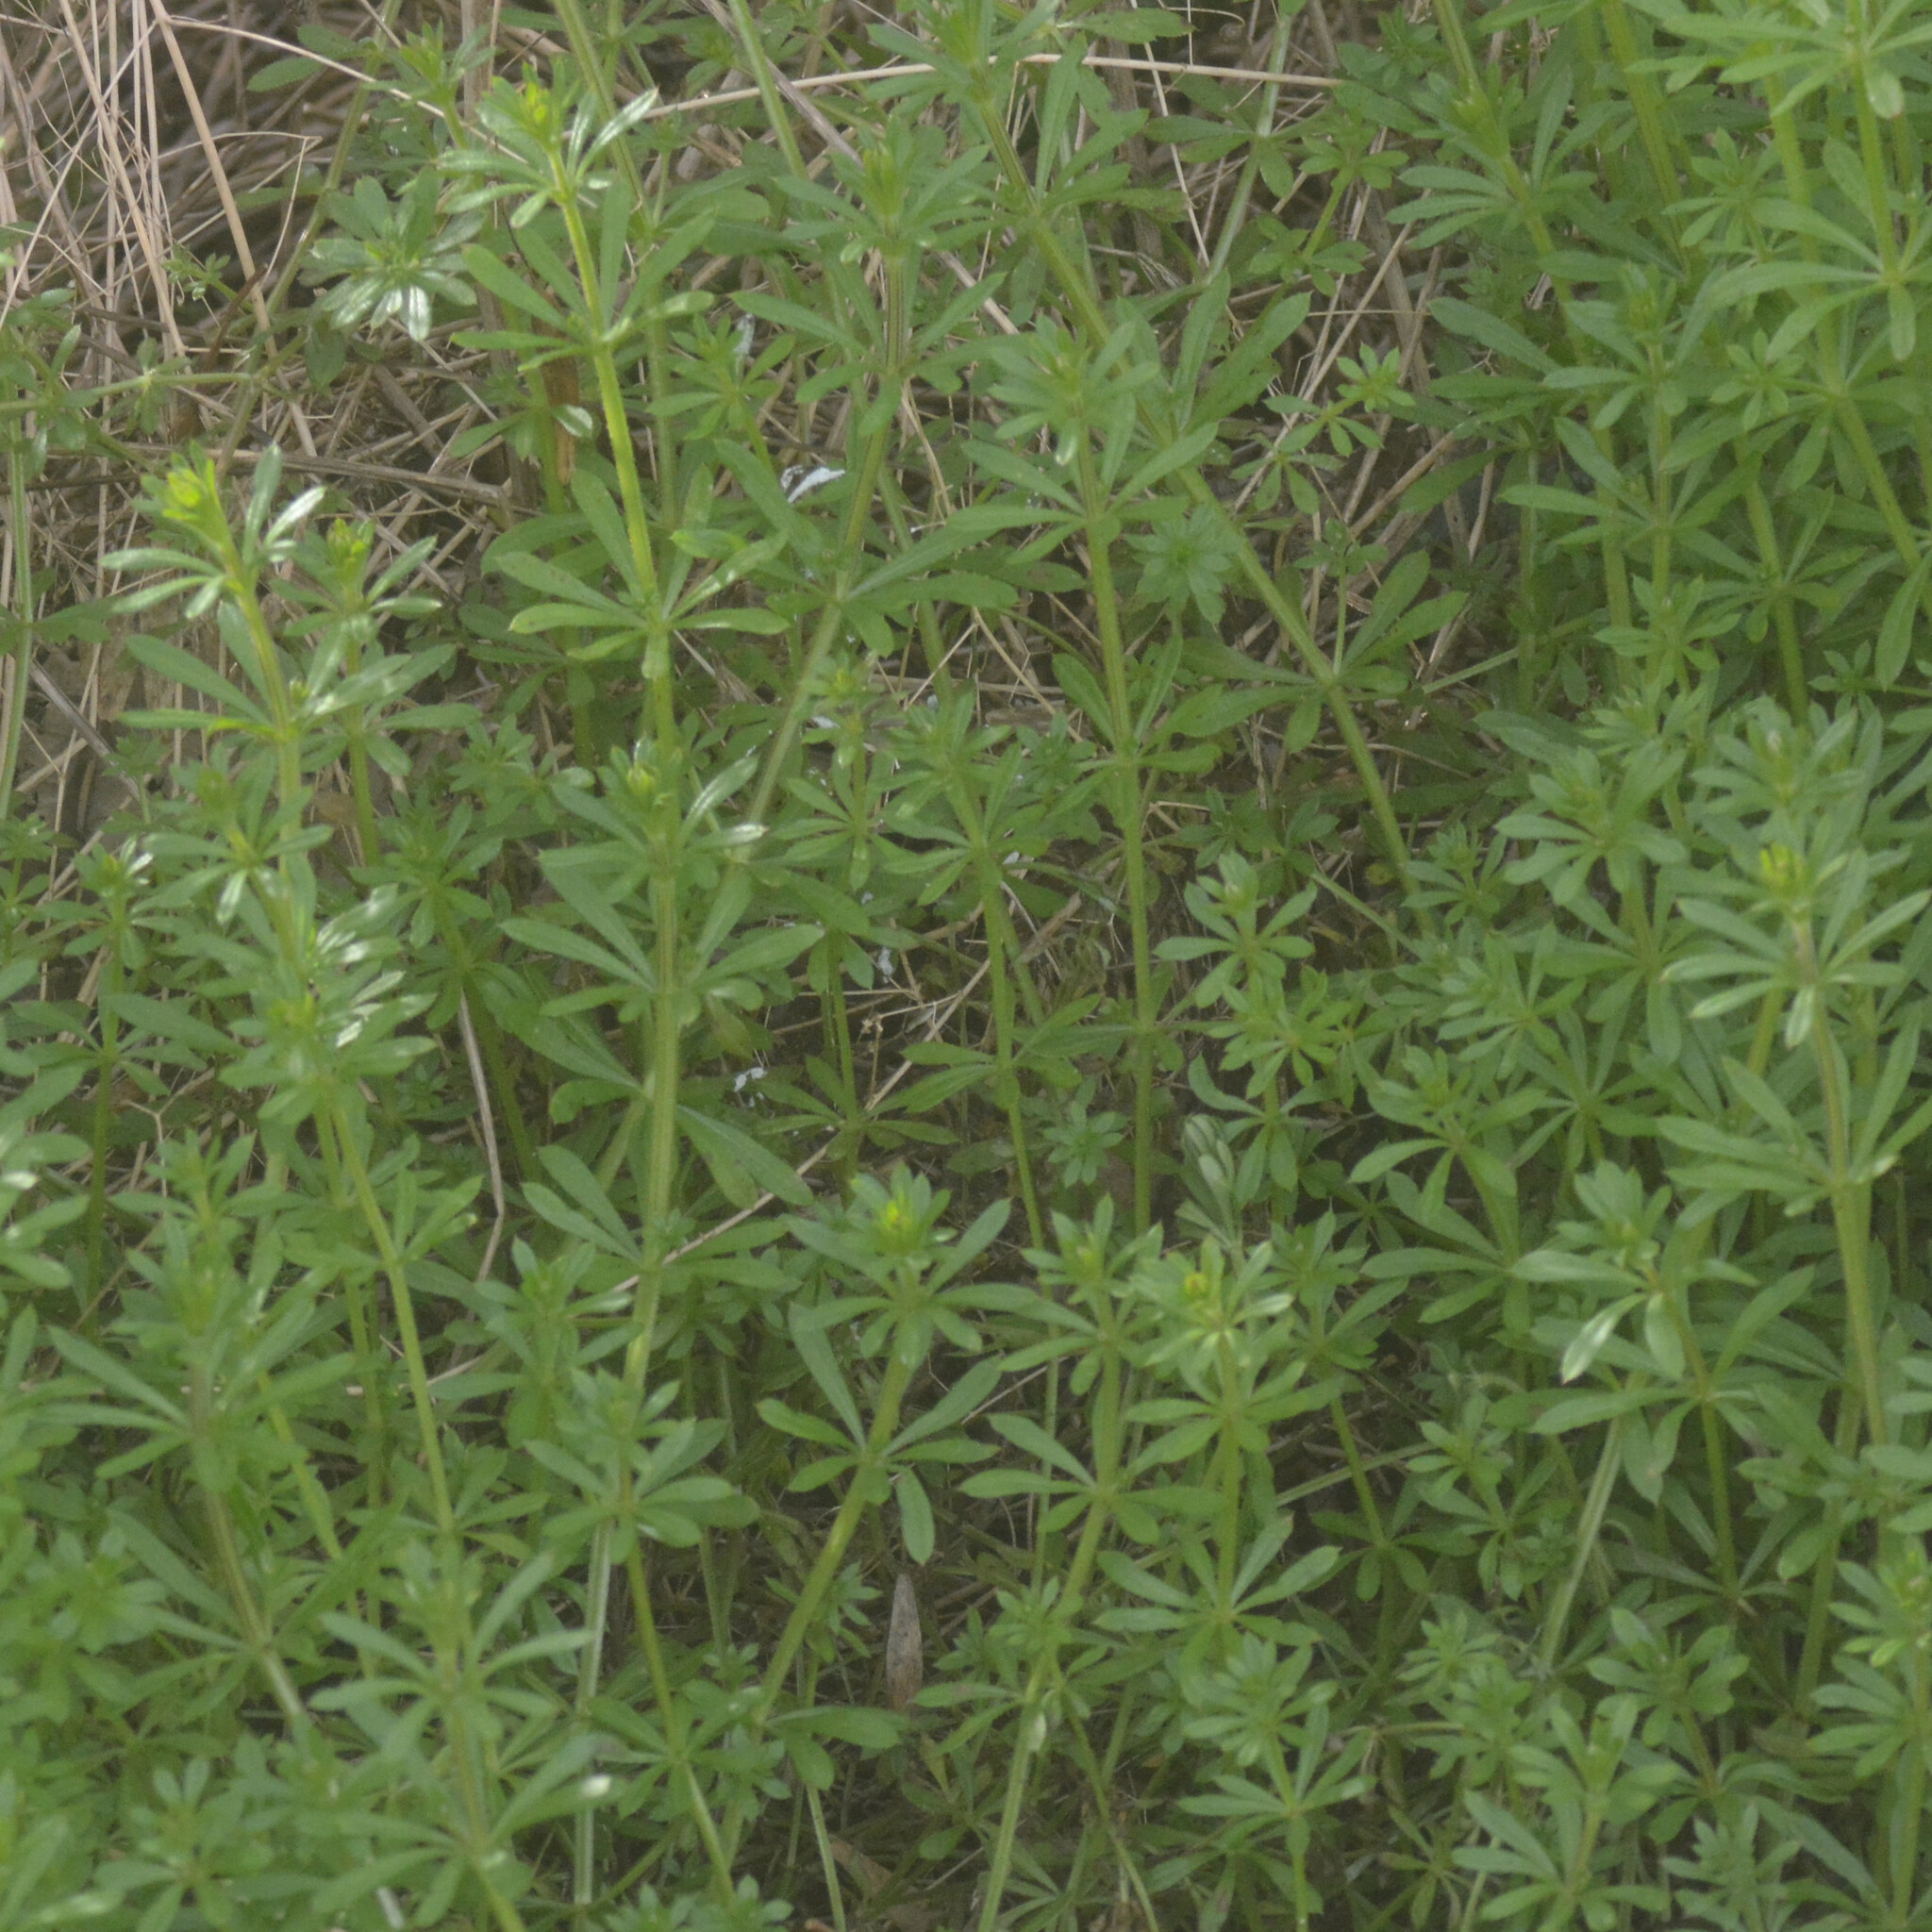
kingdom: Plantae
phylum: Tracheophyta
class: Magnoliopsida
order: Gentianales
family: Rubiaceae
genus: Galium
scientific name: Galium aparine
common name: Cleavers
